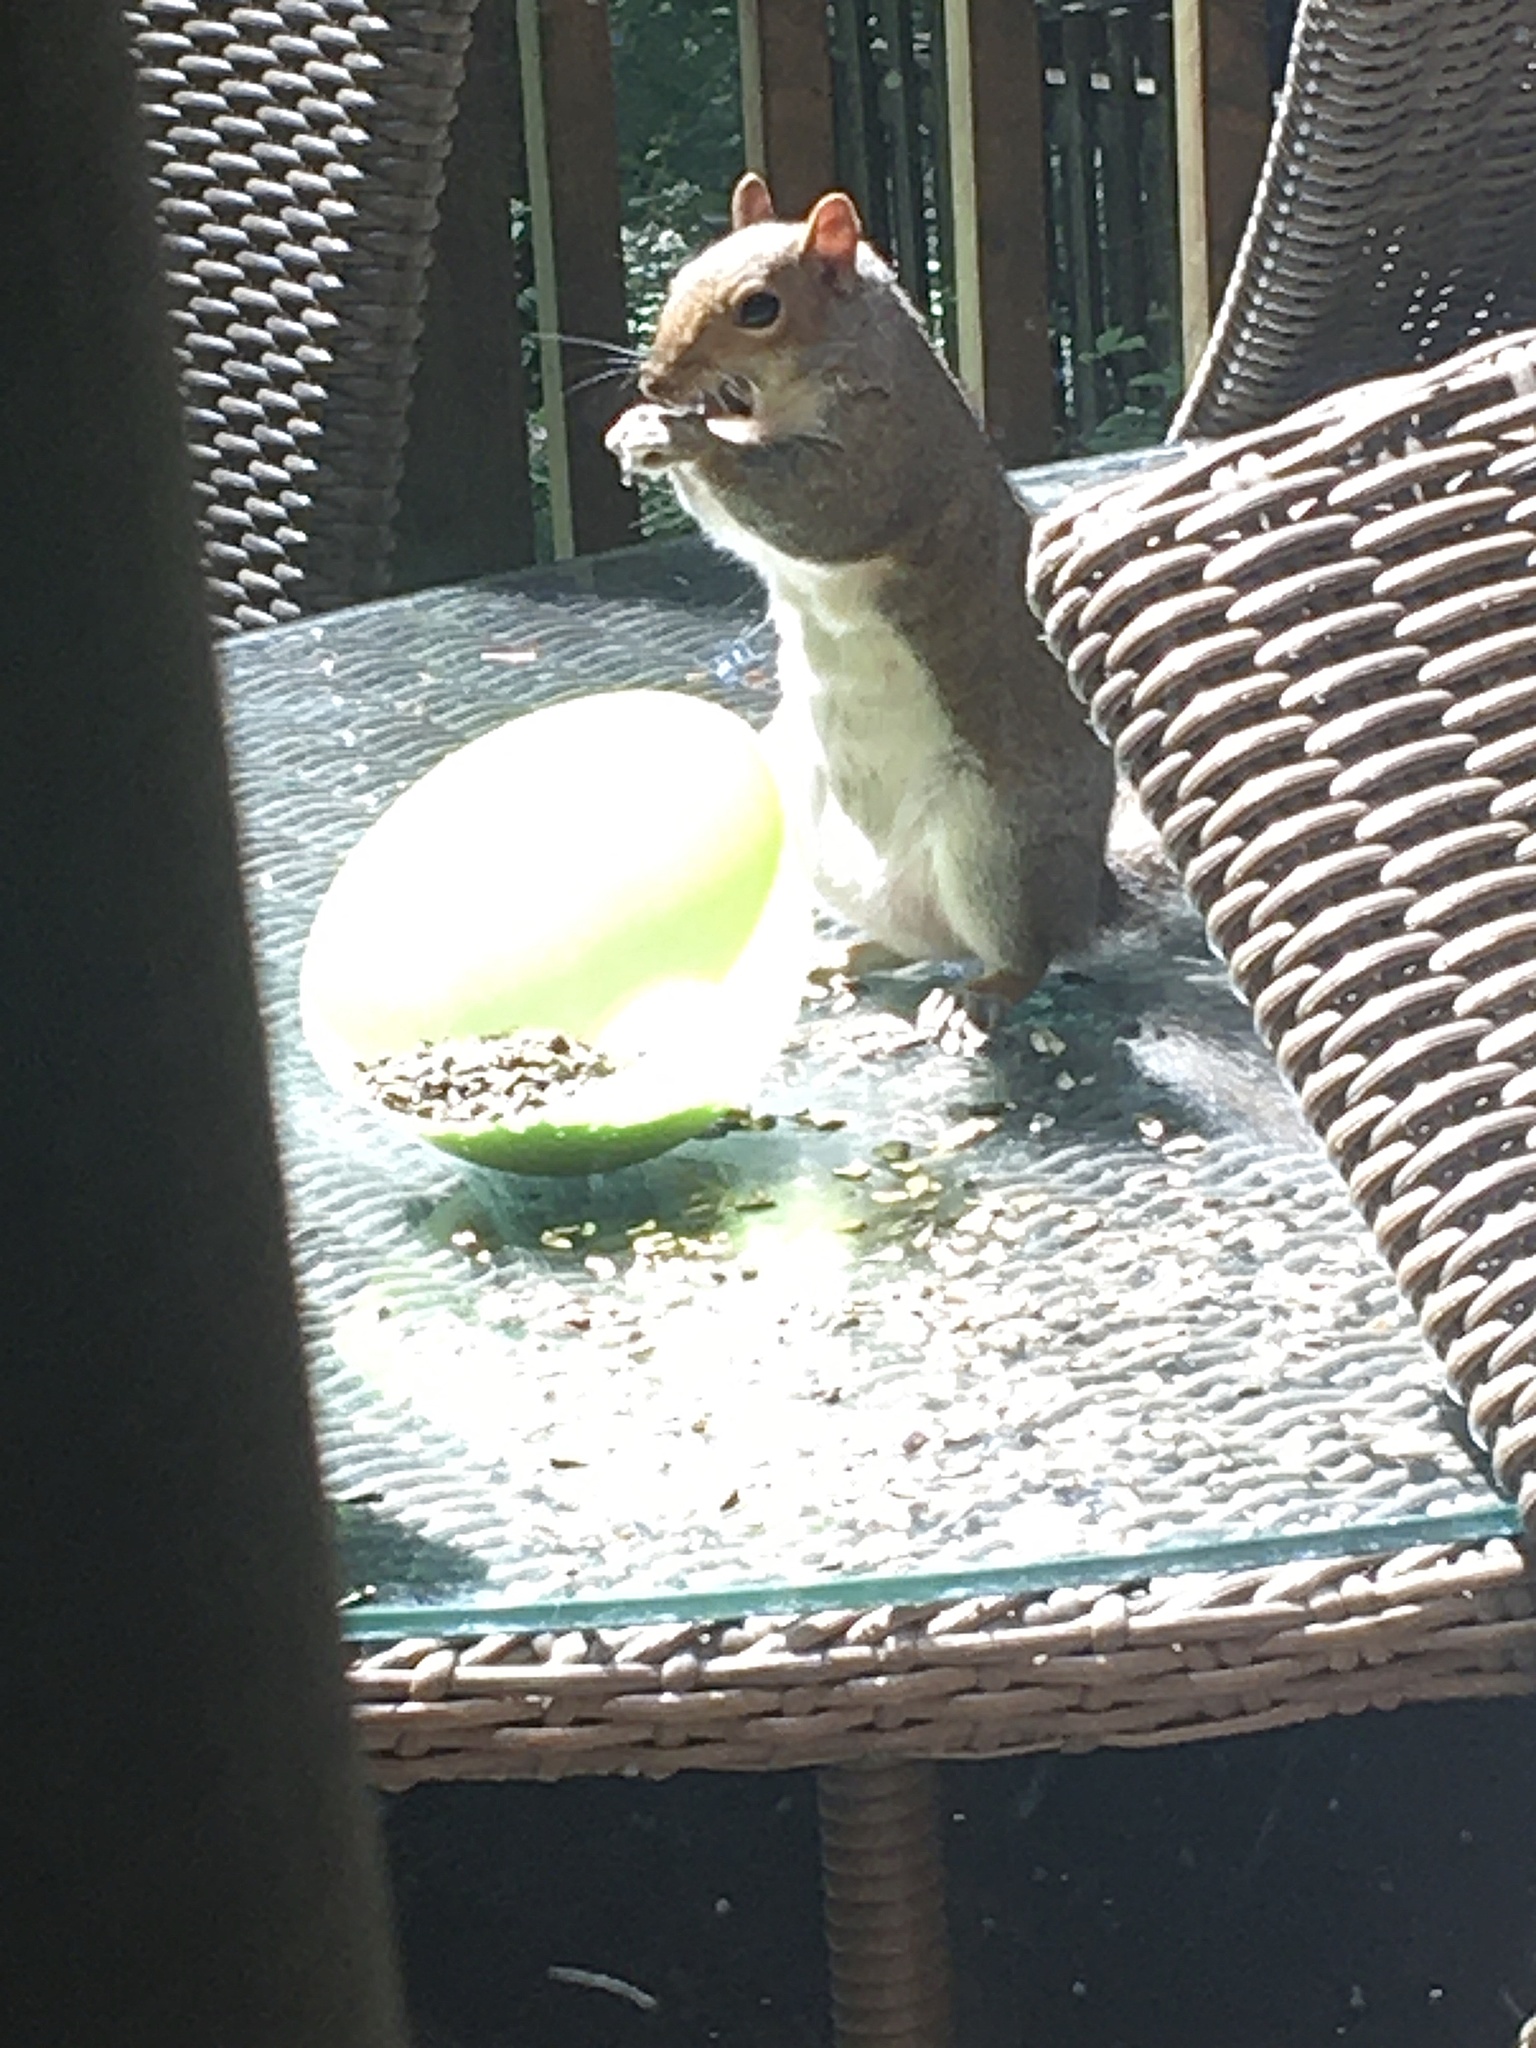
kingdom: Animalia
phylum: Chordata
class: Mammalia
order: Rodentia
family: Sciuridae
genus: Sciurus
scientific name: Sciurus carolinensis
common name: Eastern gray squirrel
